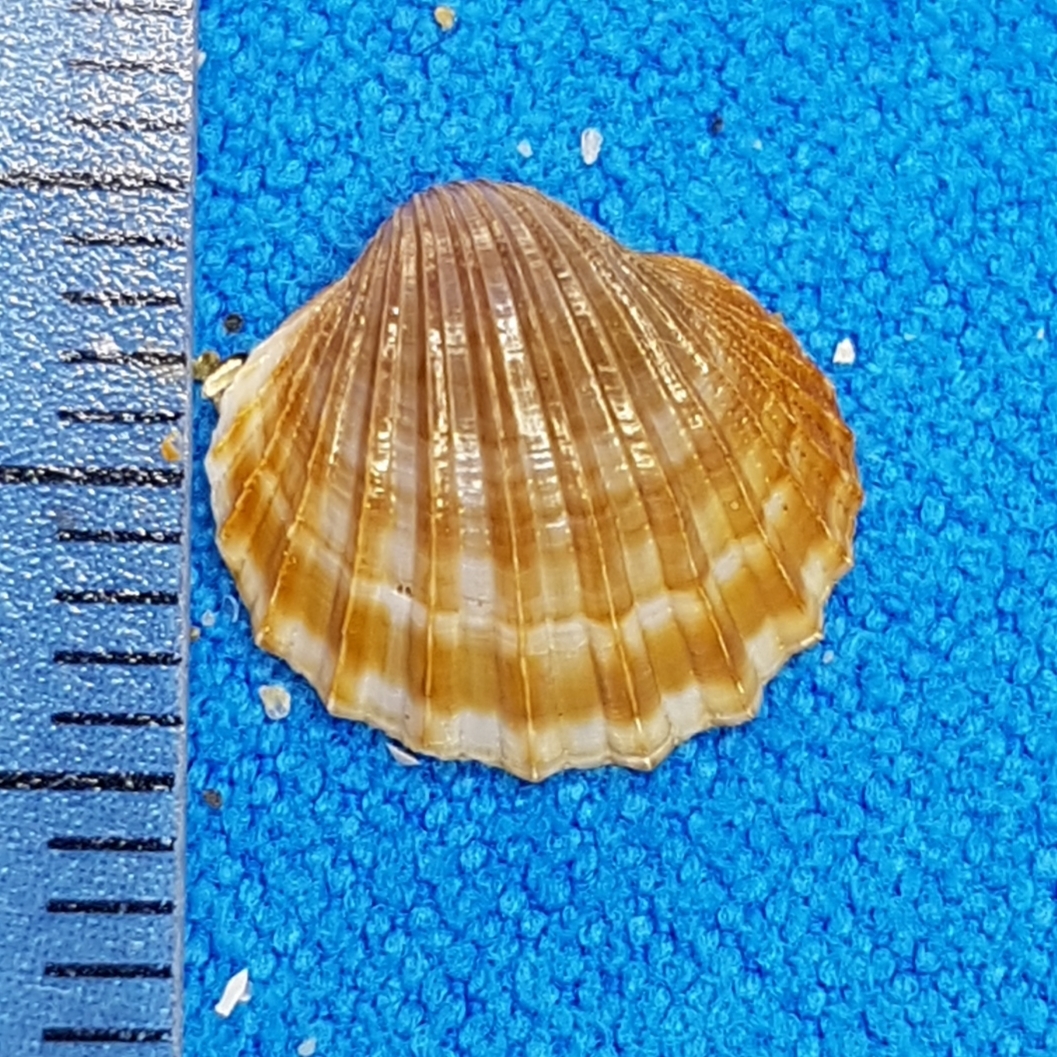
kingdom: Animalia
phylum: Mollusca
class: Bivalvia
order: Cardiida
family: Cardiidae
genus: Acanthocardia
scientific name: Acanthocardia paucicostata
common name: Poorly ribbed cockle
